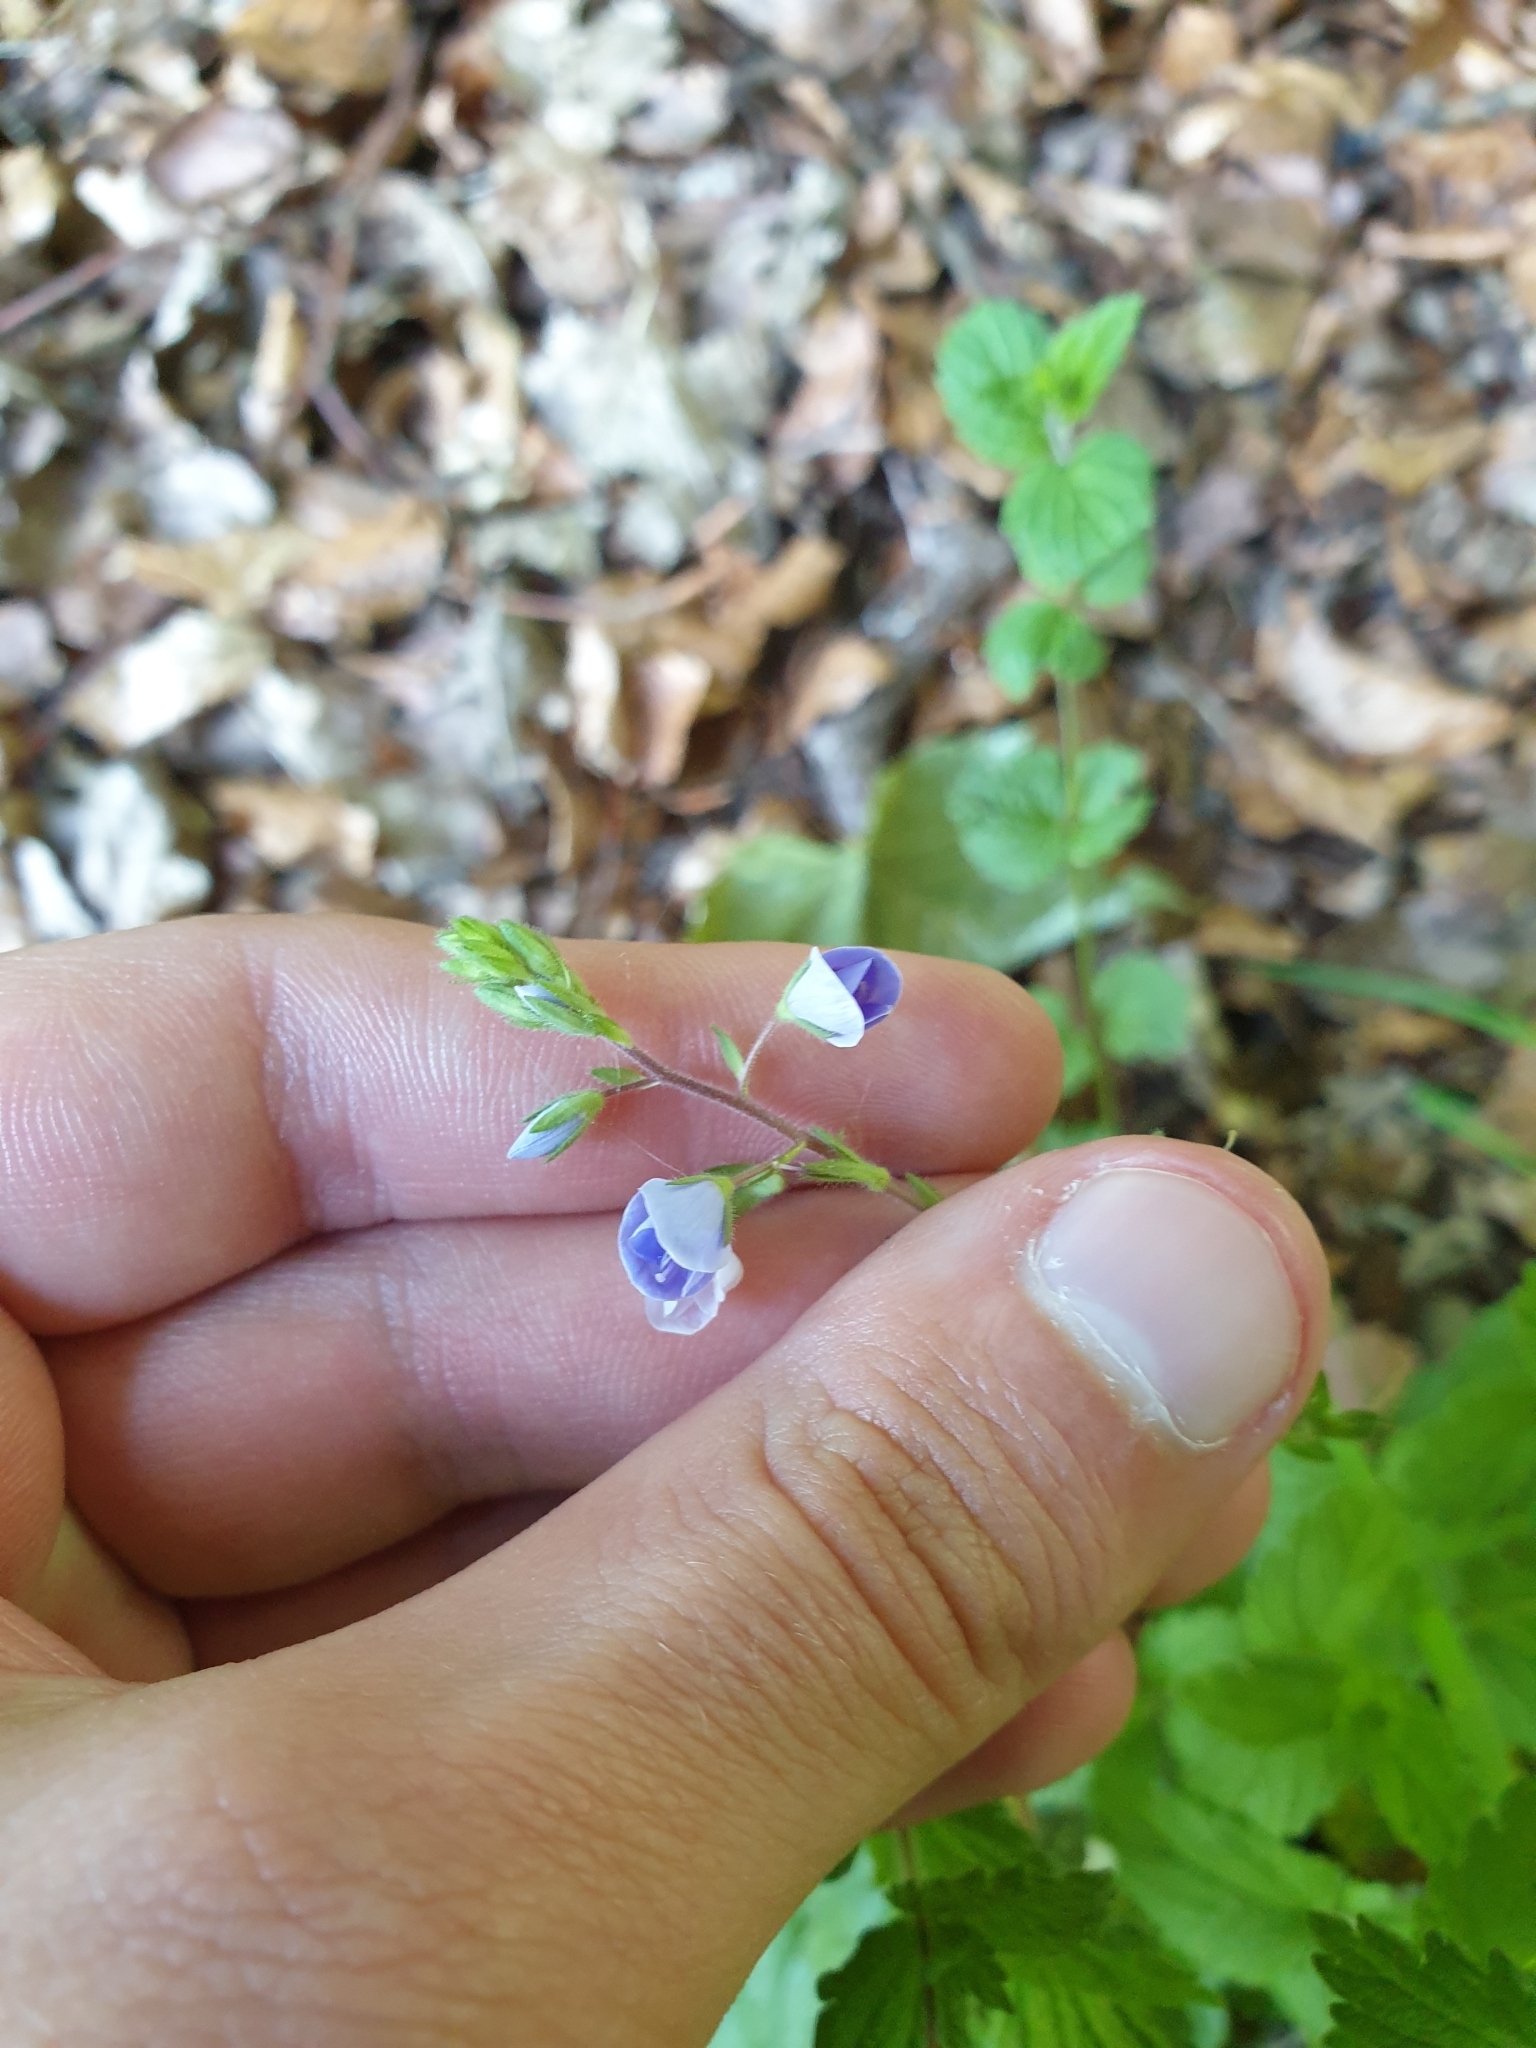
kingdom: Plantae
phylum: Tracheophyta
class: Magnoliopsida
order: Lamiales
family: Plantaginaceae
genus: Veronica
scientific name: Veronica chamaedrys
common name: Germander speedwell
